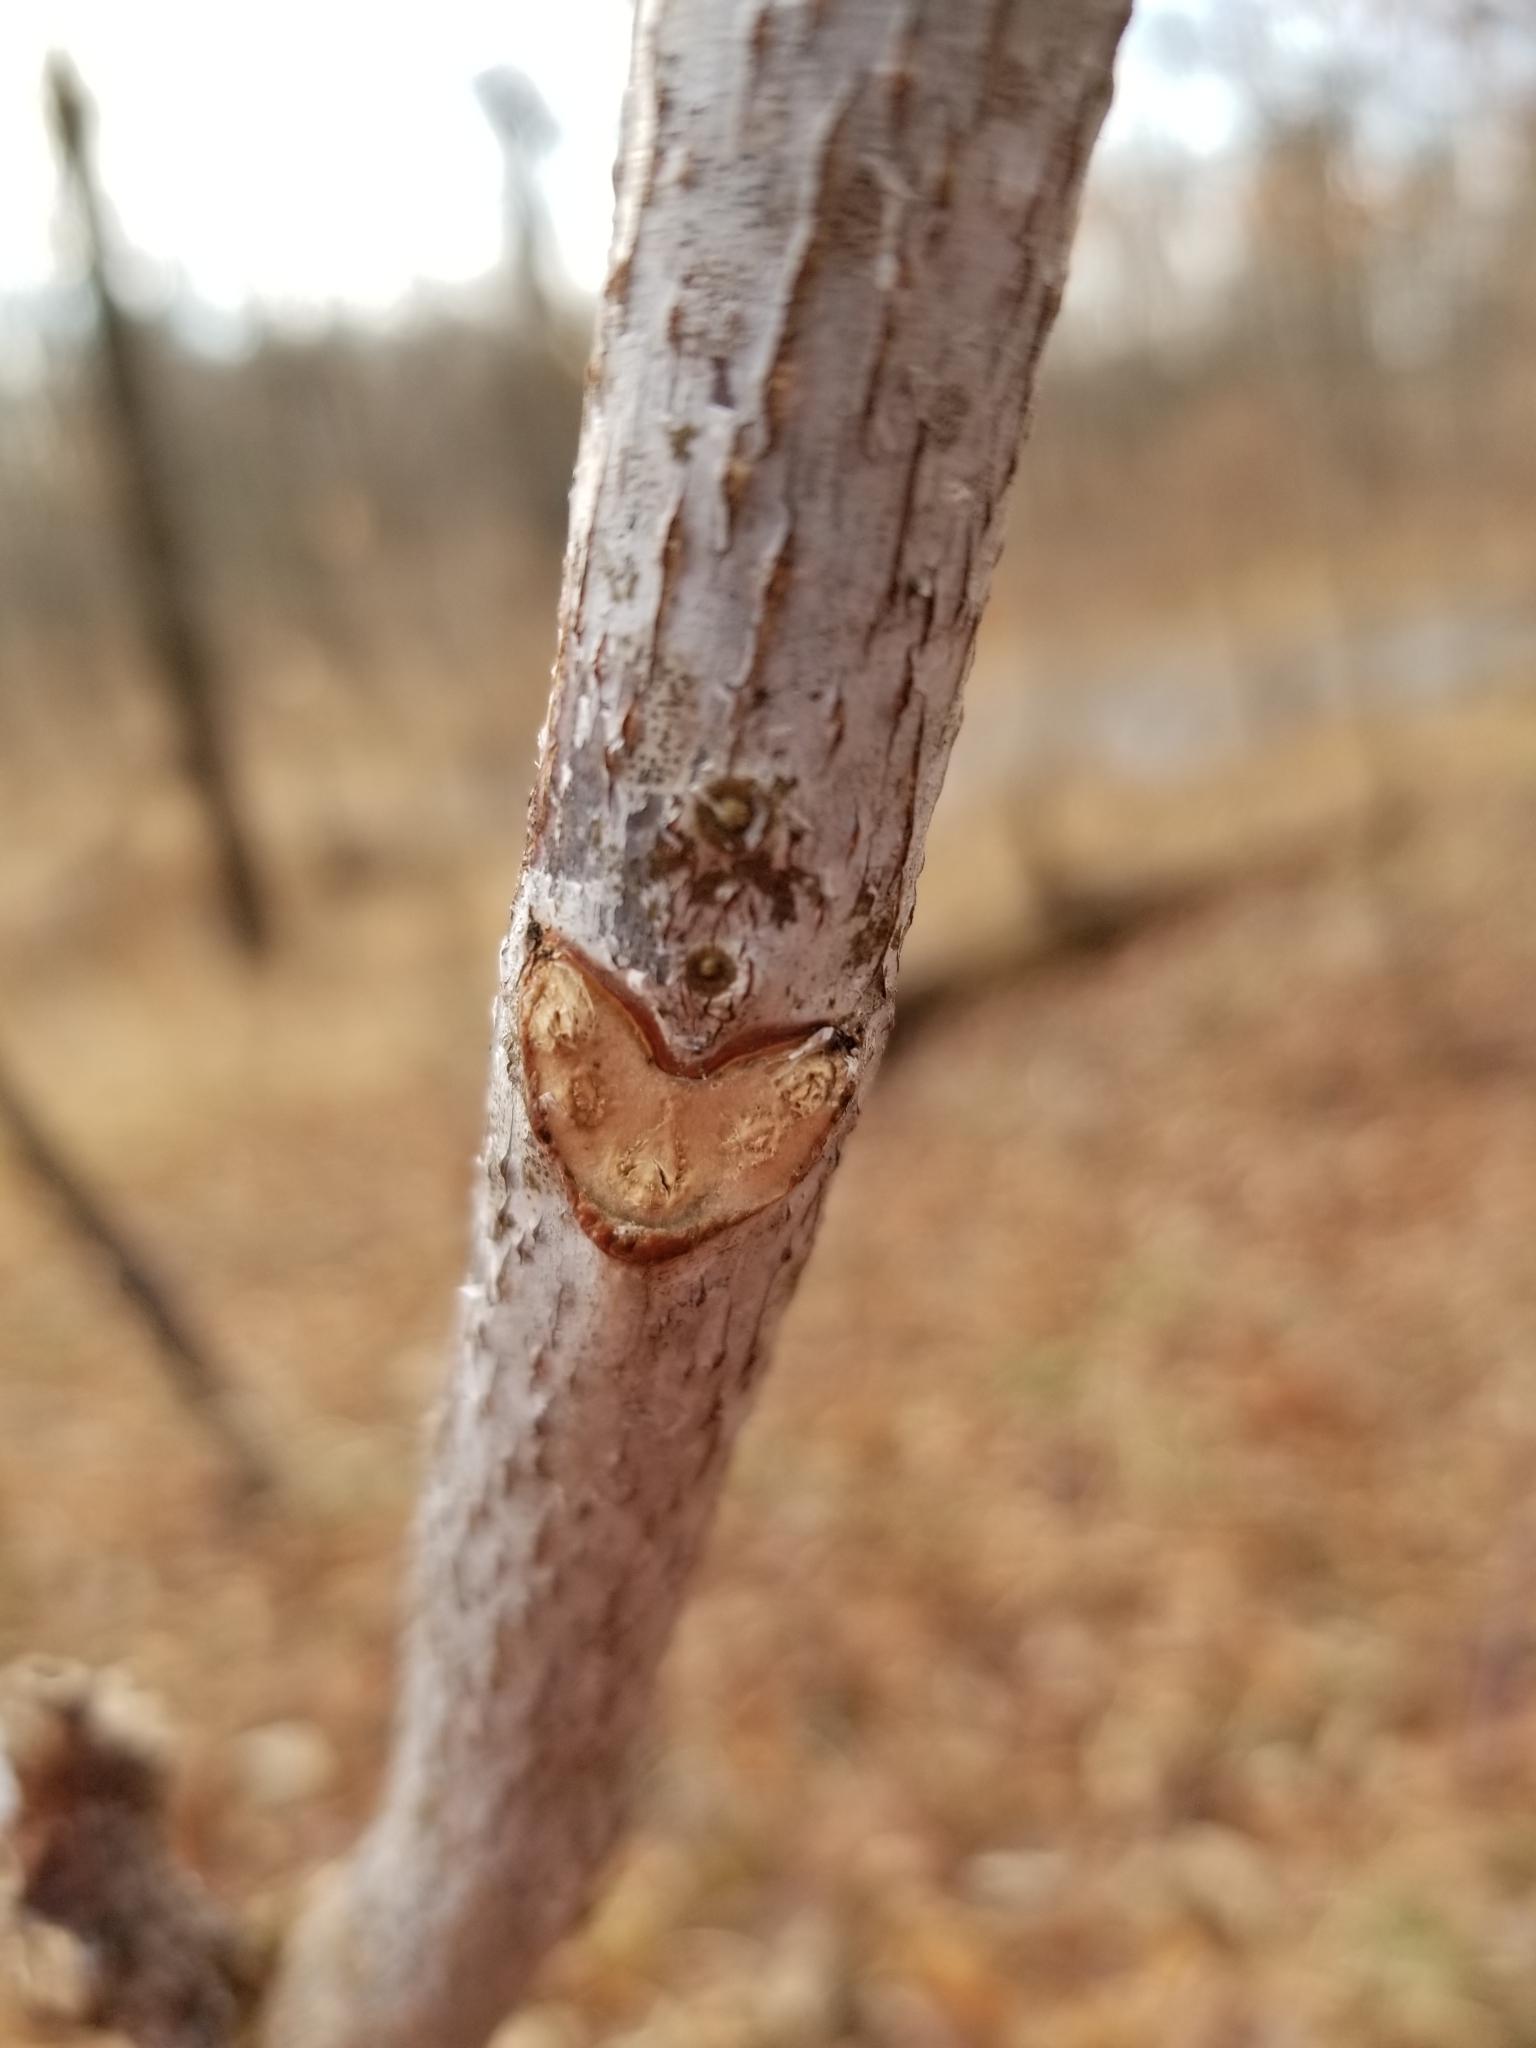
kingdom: Plantae
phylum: Tracheophyta
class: Magnoliopsida
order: Fabales
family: Fabaceae
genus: Gymnocladus
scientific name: Gymnocladus dioicus
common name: Kentucky coffee-tree
